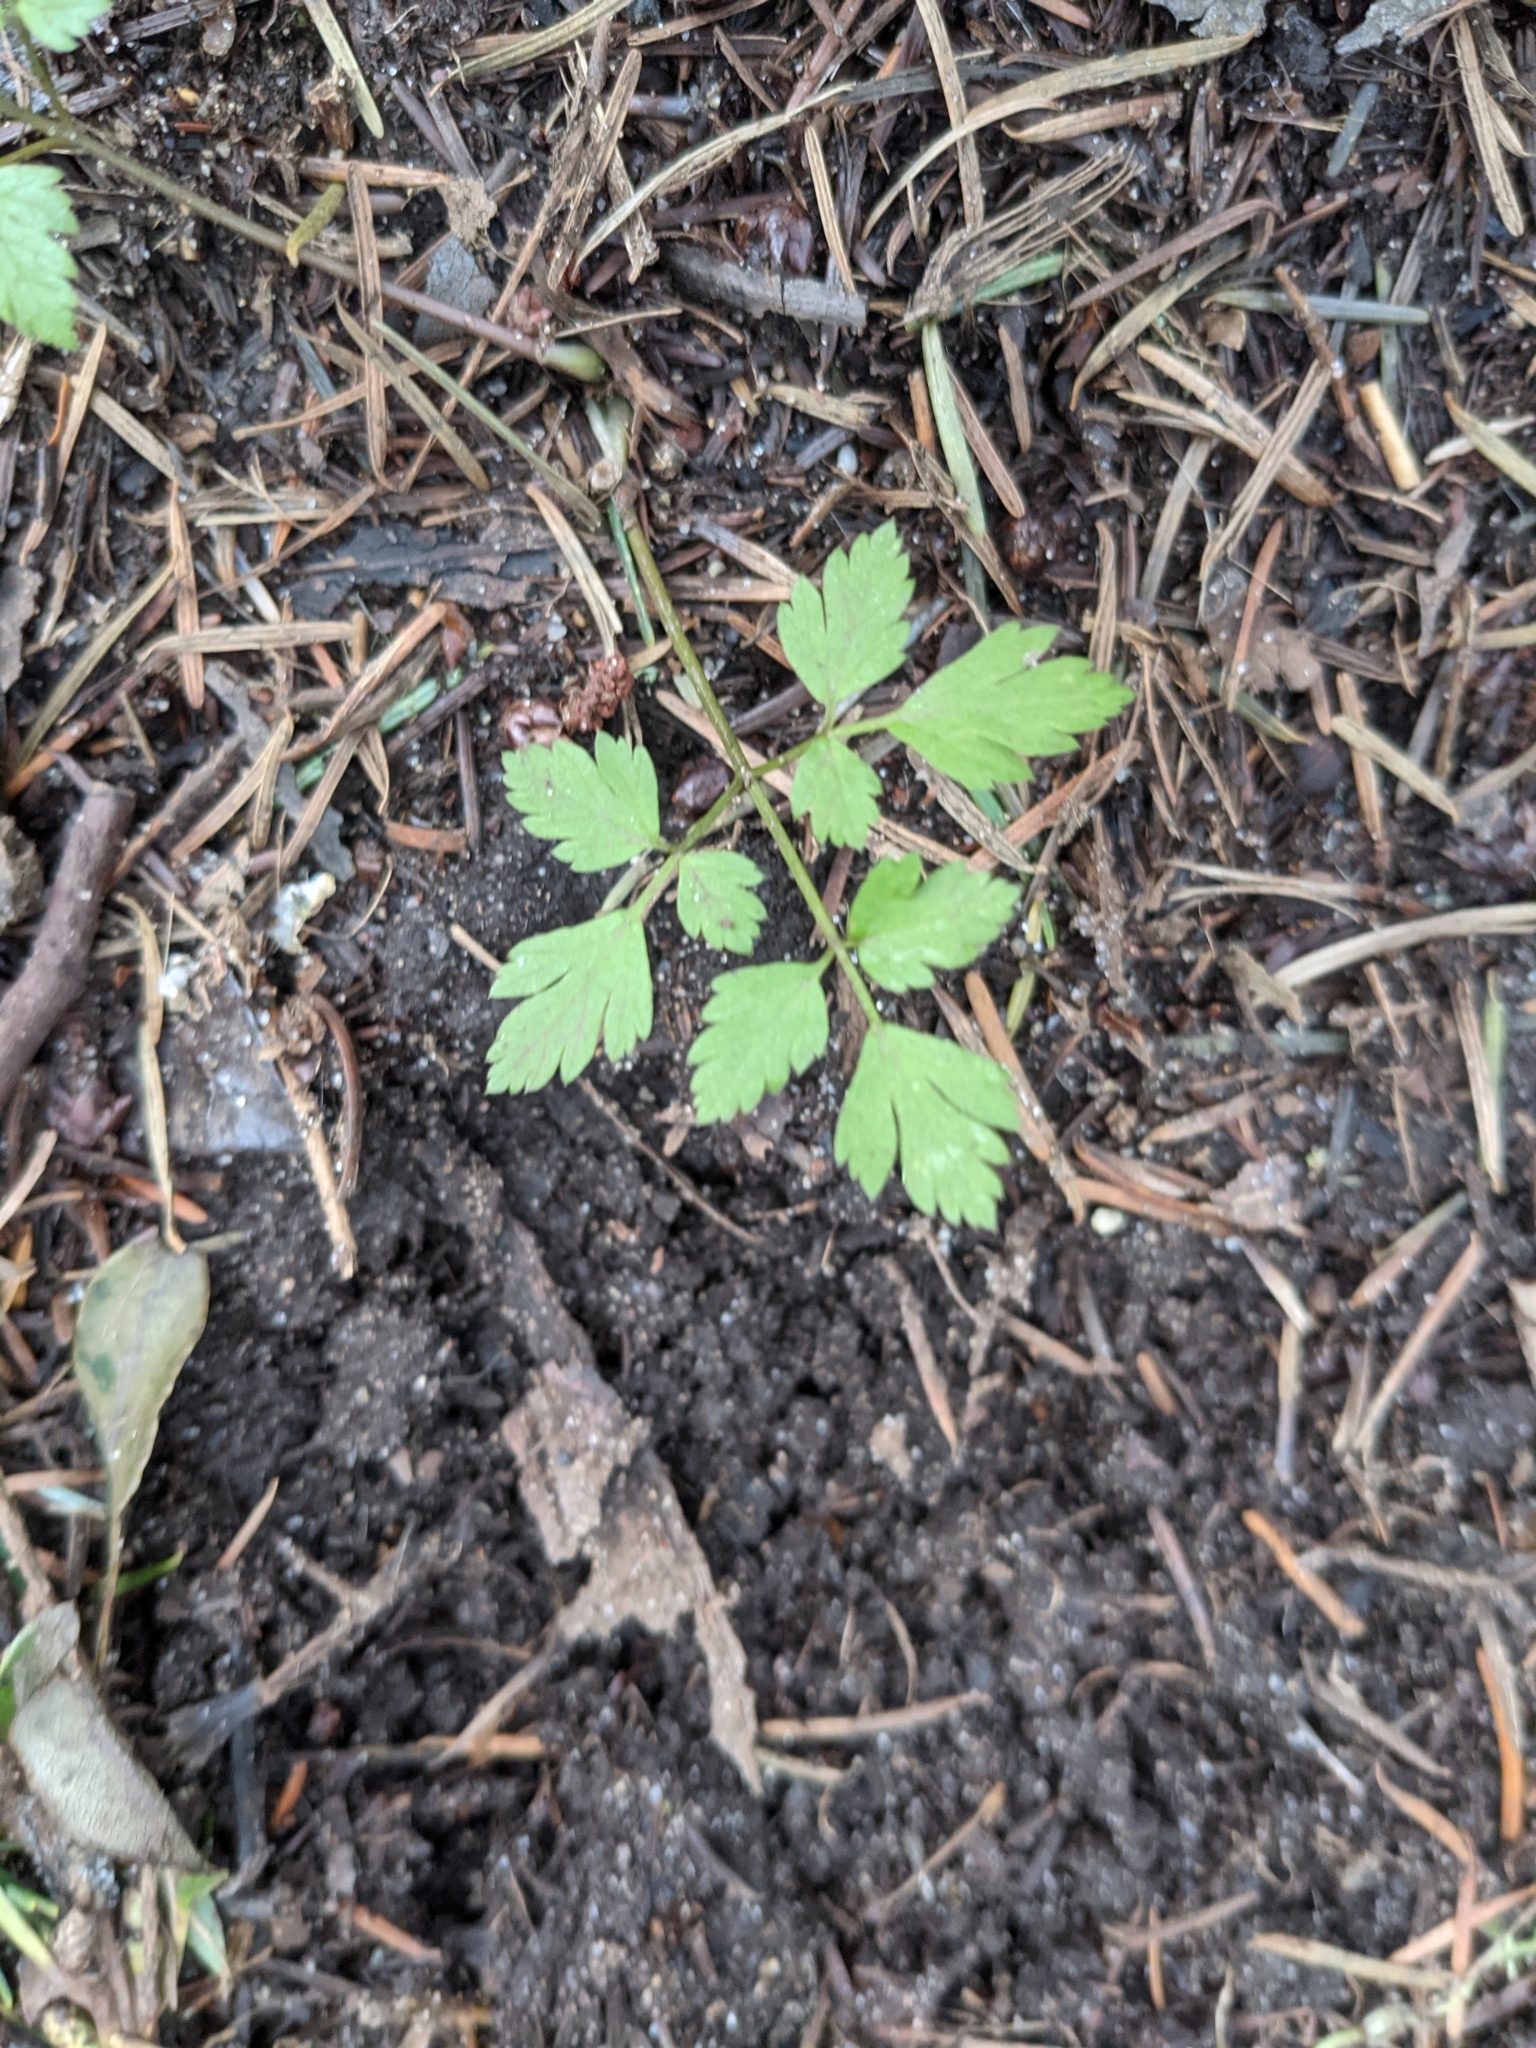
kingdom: Plantae
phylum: Tracheophyta
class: Magnoliopsida
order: Apiales
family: Apiaceae
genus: Osmorhiza
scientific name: Osmorhiza berteroi
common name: Mountain sweet cicely
